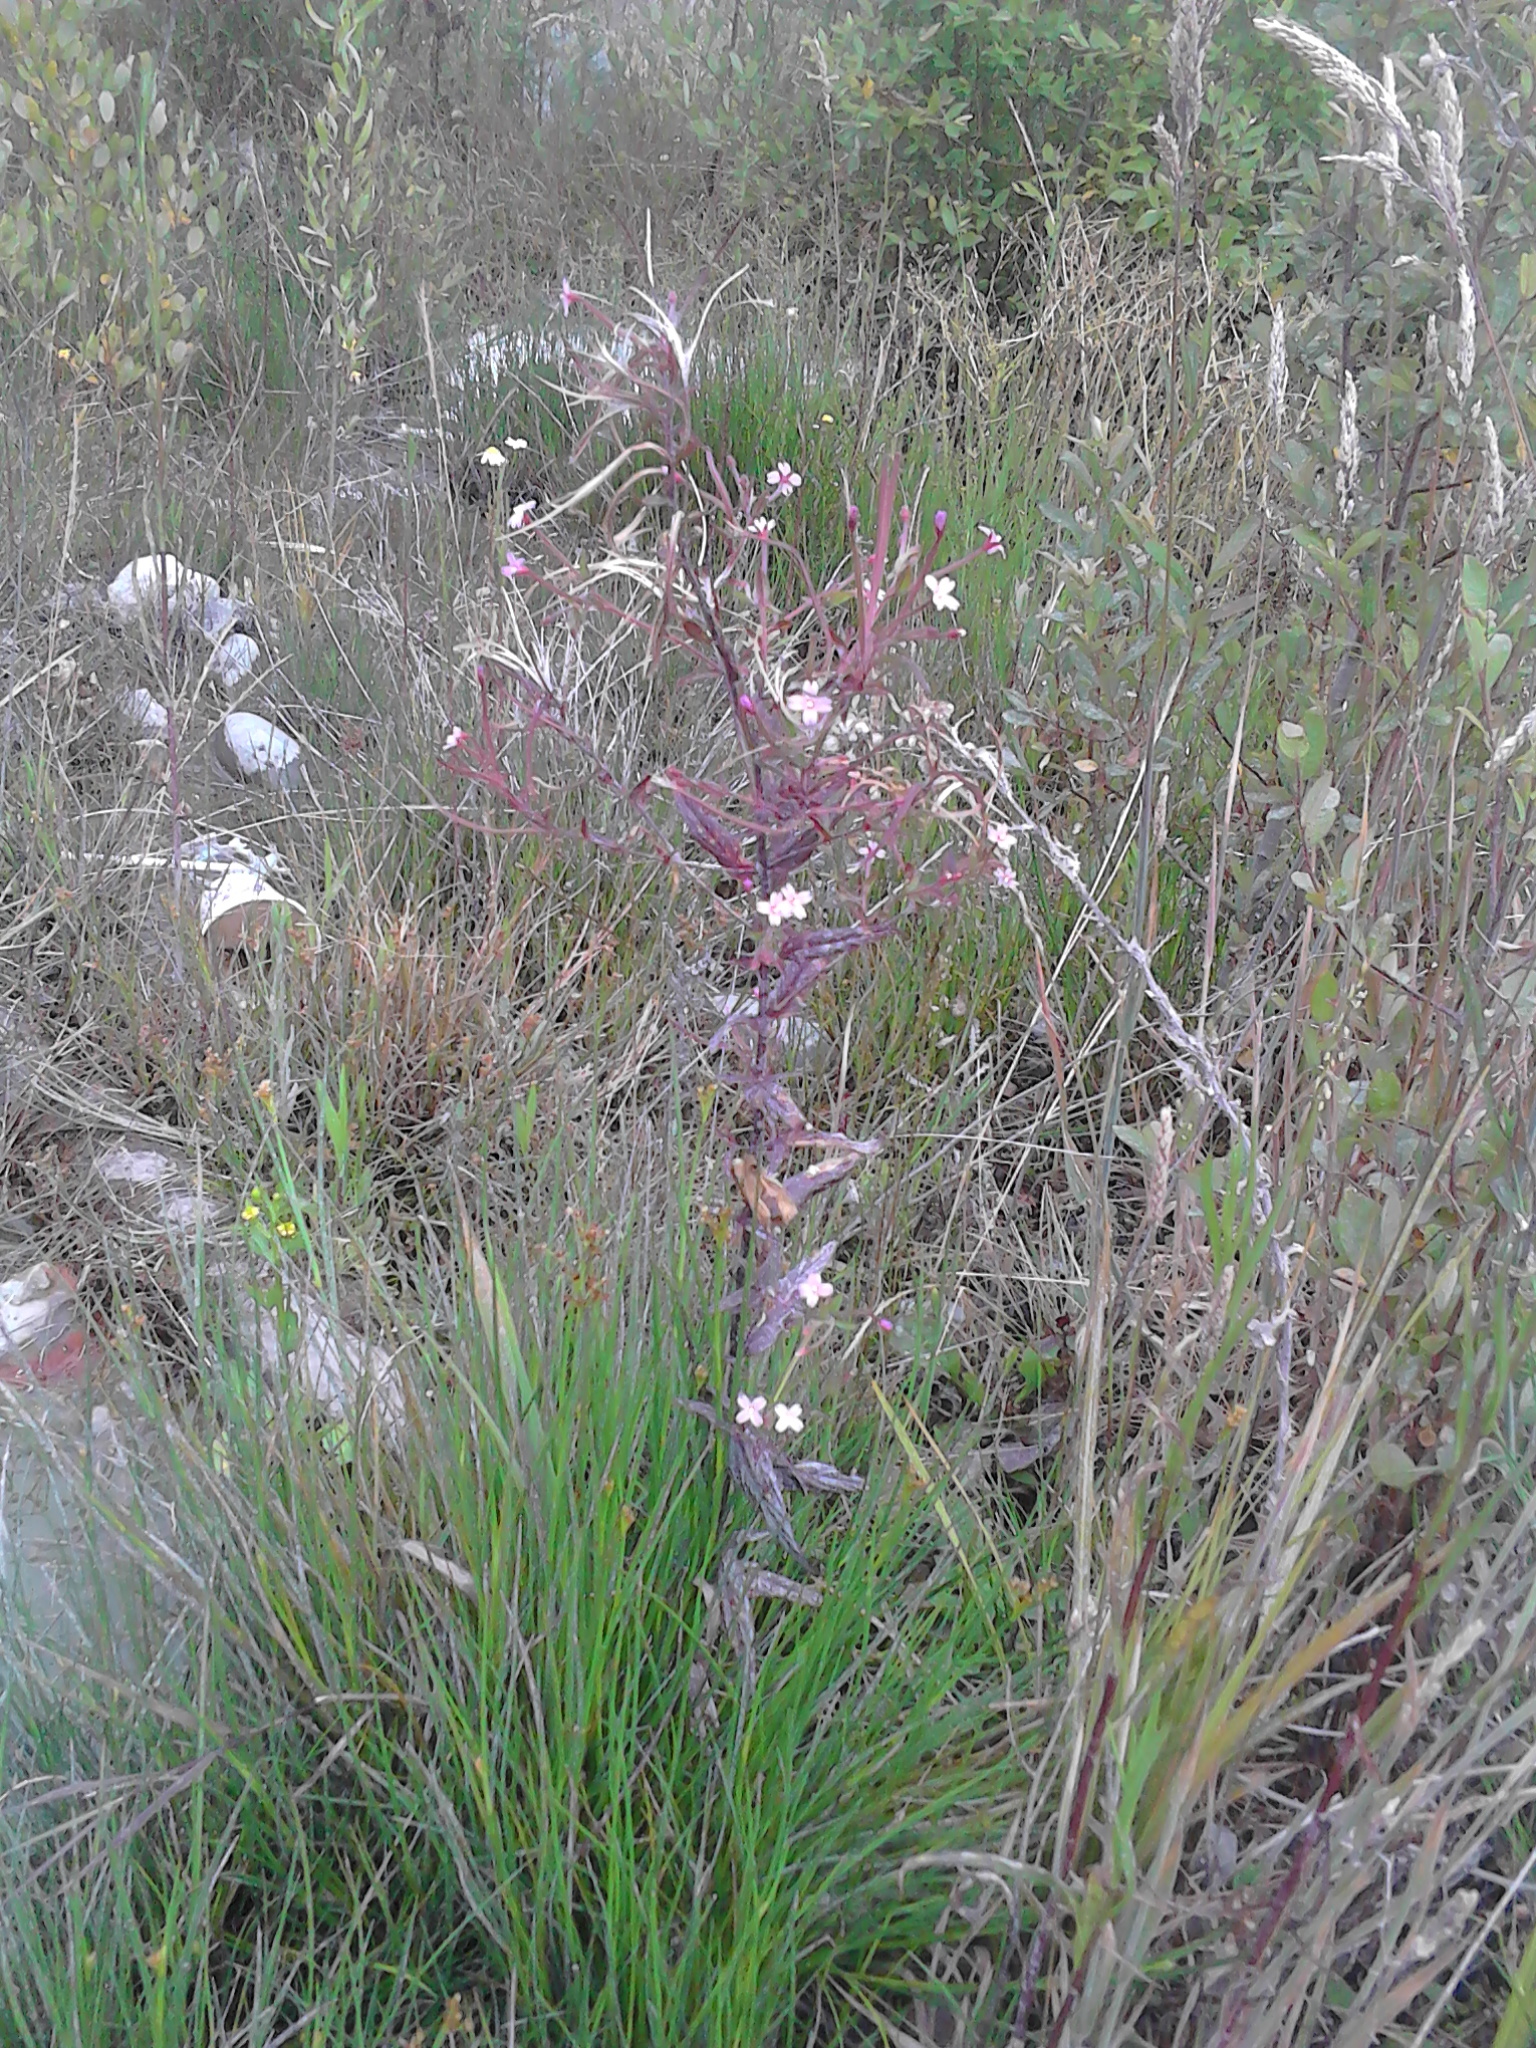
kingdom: Plantae
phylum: Tracheophyta
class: Magnoliopsida
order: Myrtales
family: Onagraceae
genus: Epilobium
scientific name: Epilobium ciliatum
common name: American willowherb
